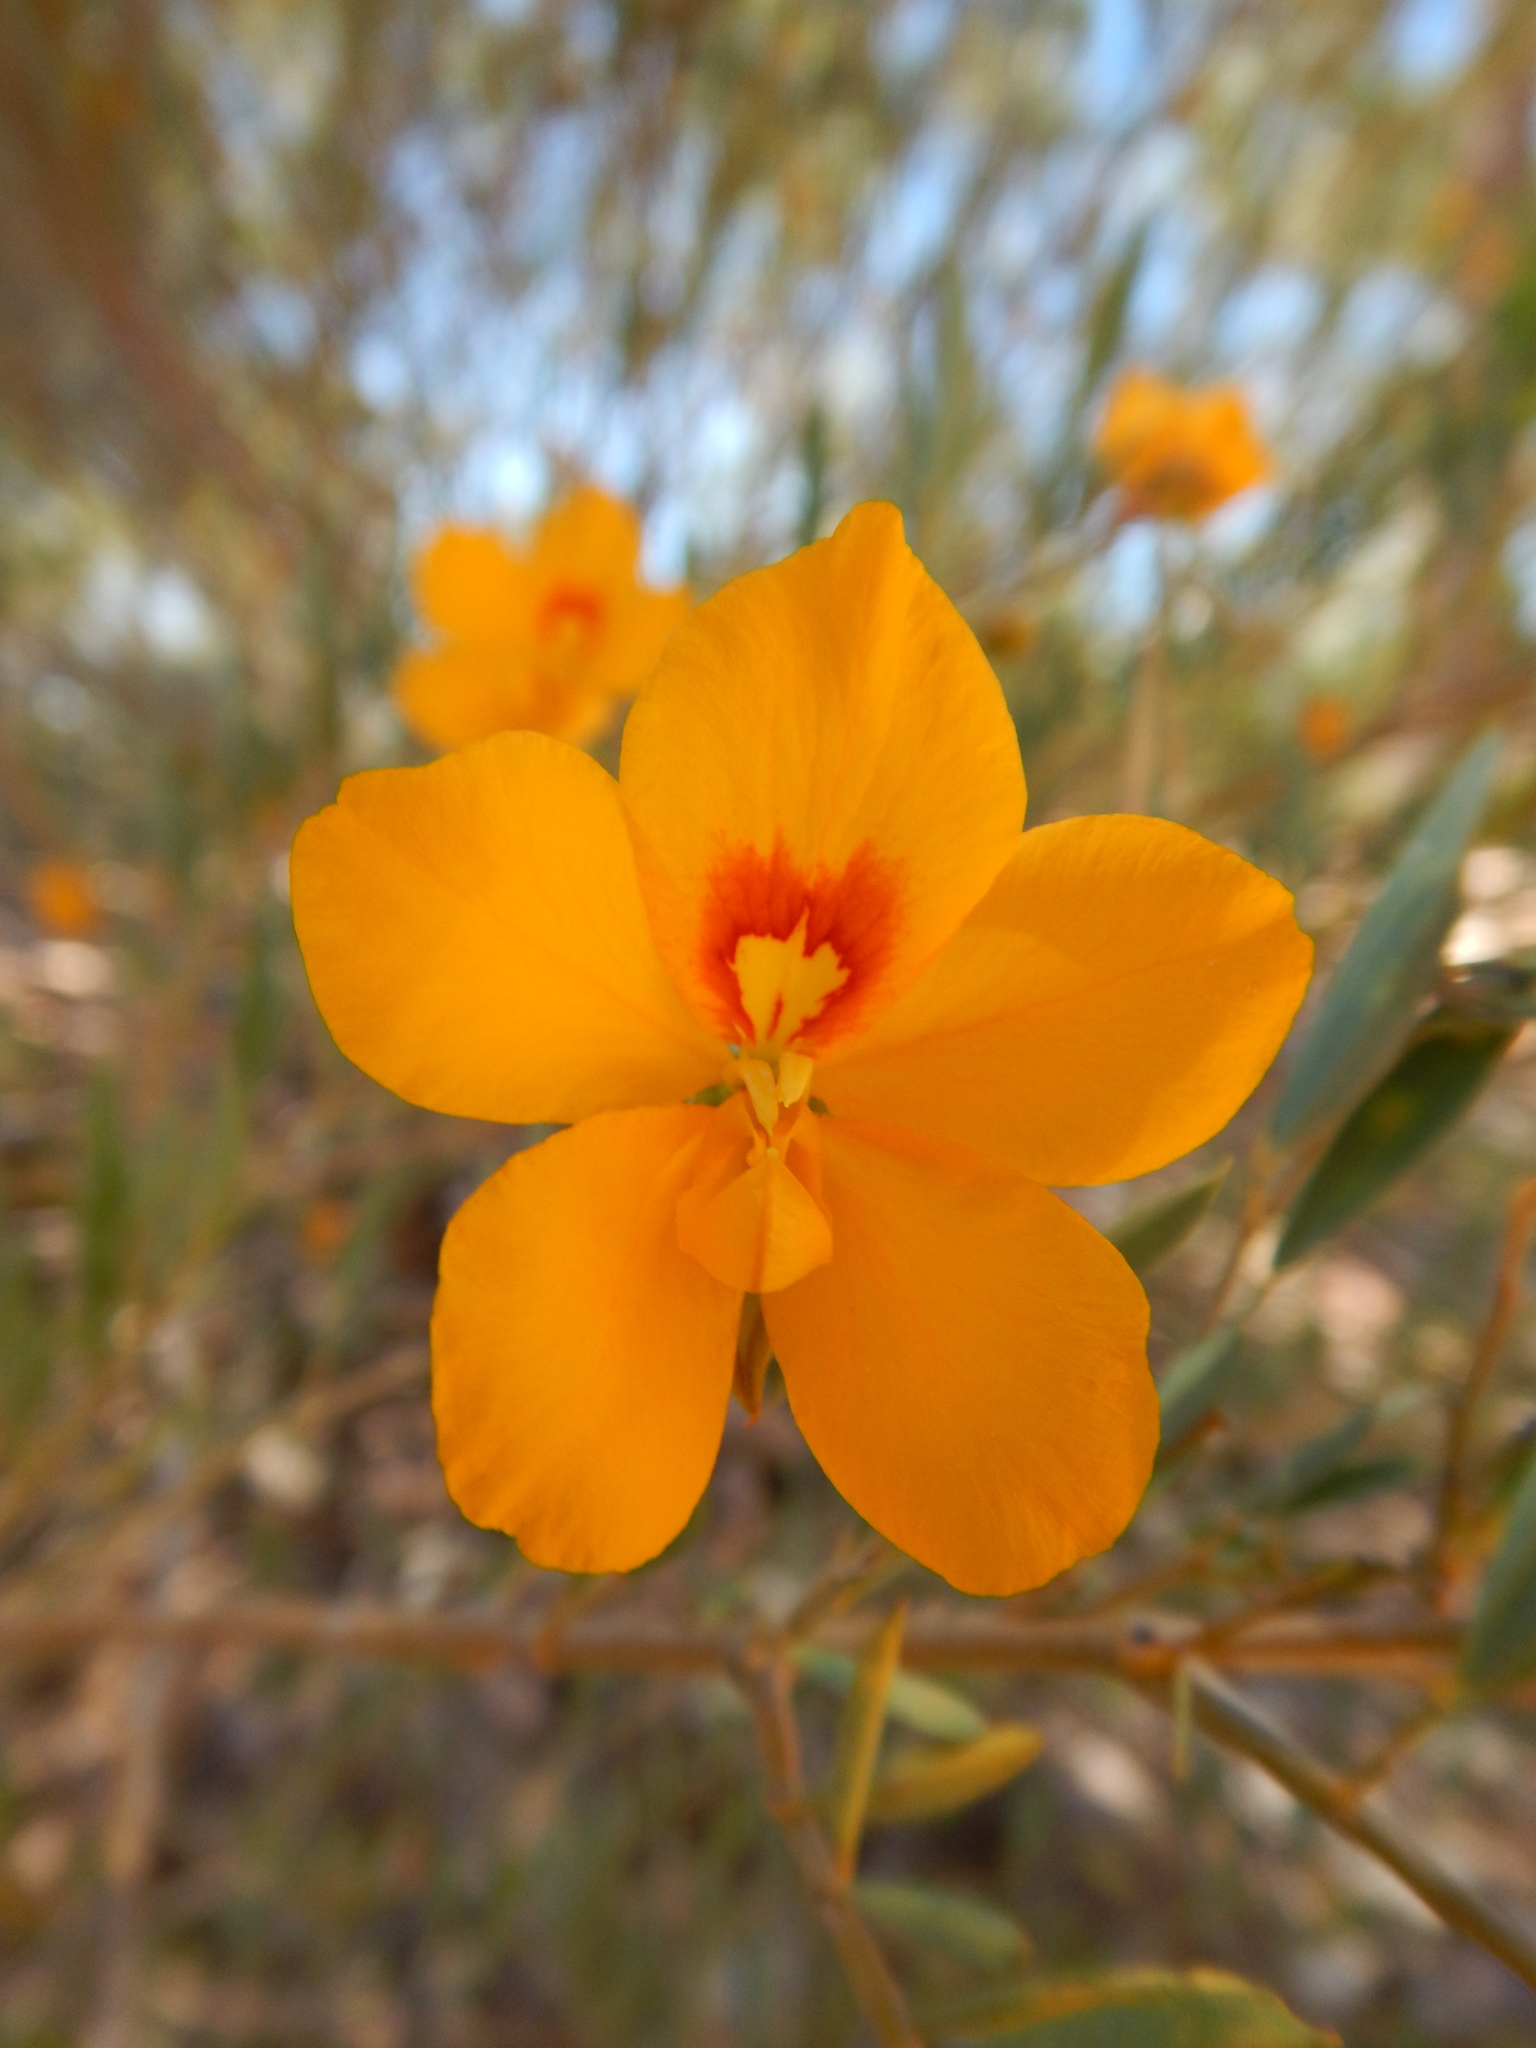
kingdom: Plantae
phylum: Tracheophyta
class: Magnoliopsida
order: Fabales
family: Fabaceae
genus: Petalostylis
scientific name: Petalostylis labicheoides
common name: Butterfly bush
